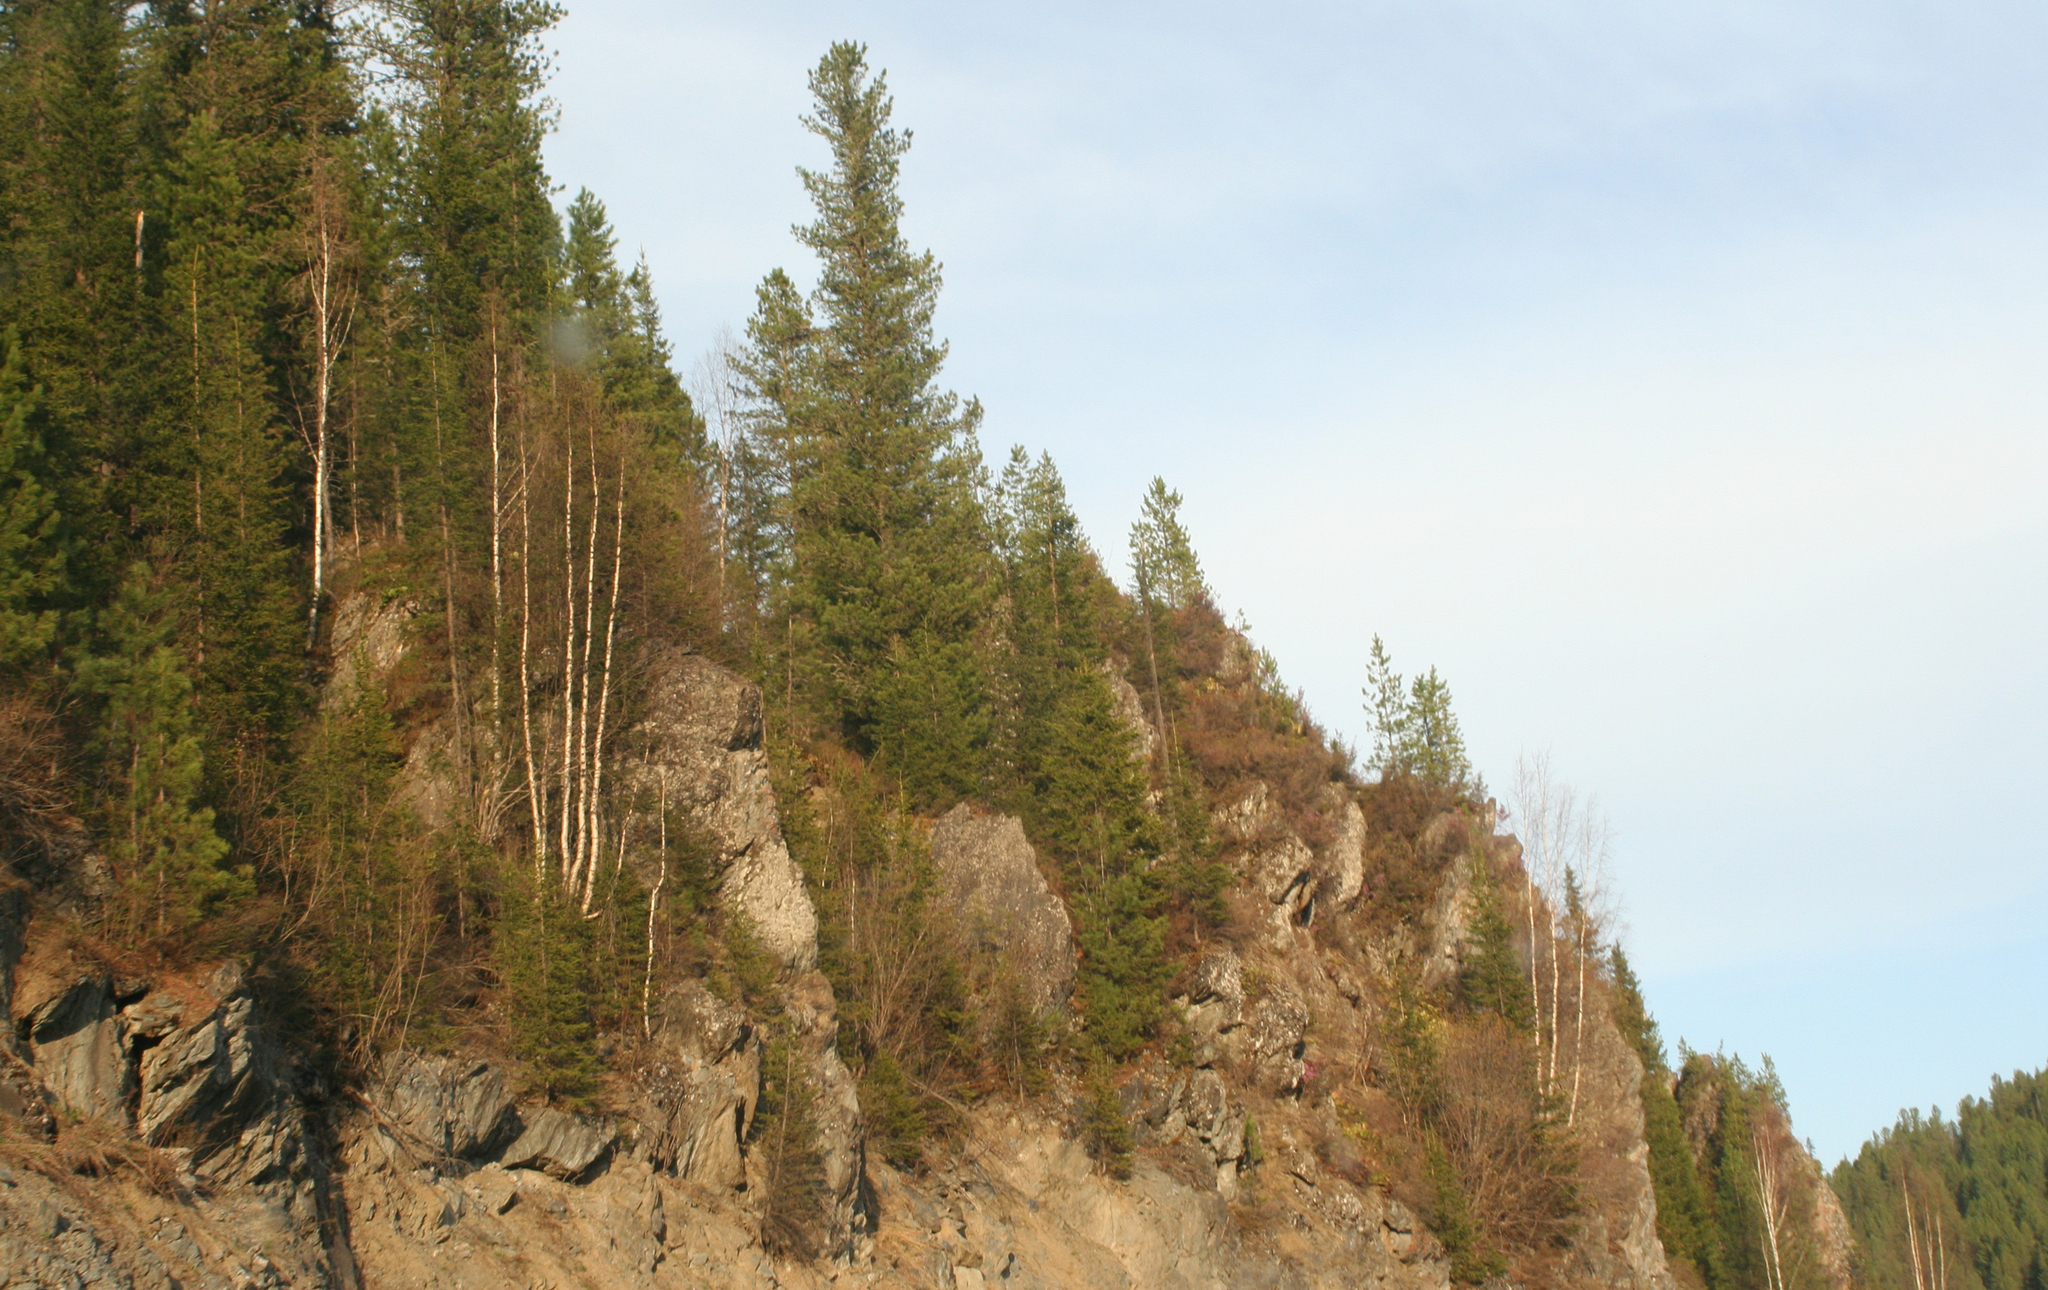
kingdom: Plantae
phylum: Tracheophyta
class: Pinopsida
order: Pinales
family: Pinaceae
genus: Pinus
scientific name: Pinus sibirica
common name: Siberian pine
